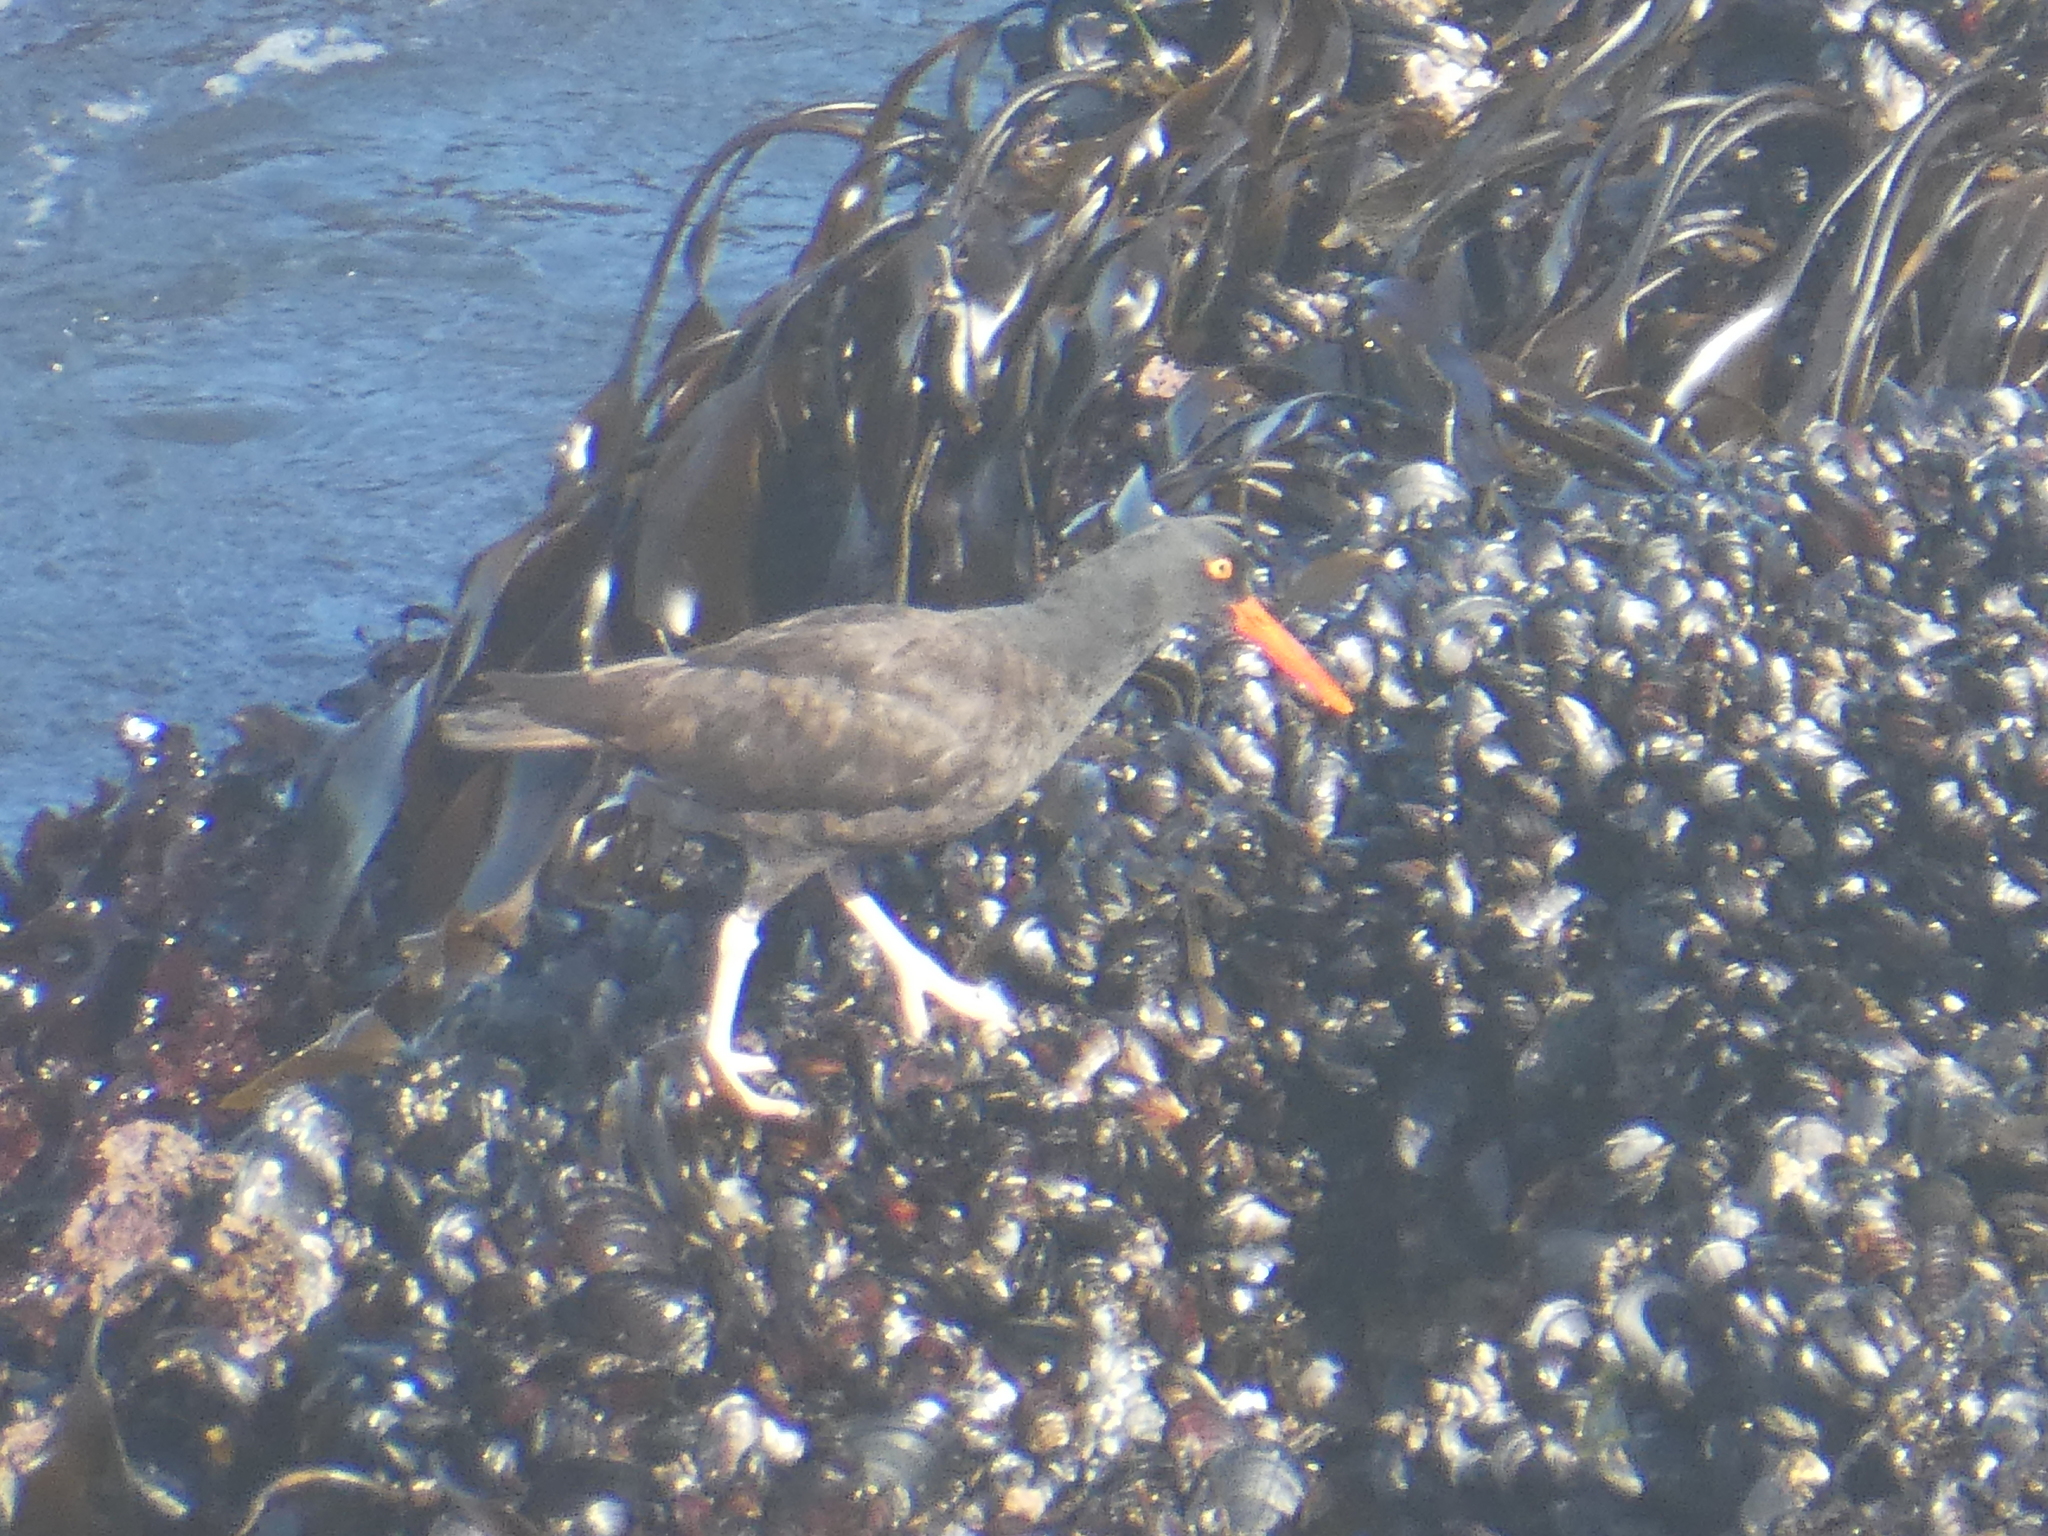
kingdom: Animalia
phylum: Chordata
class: Aves
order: Charadriiformes
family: Haematopodidae
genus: Haematopus
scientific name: Haematopus bachmani
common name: Black oystercatcher
